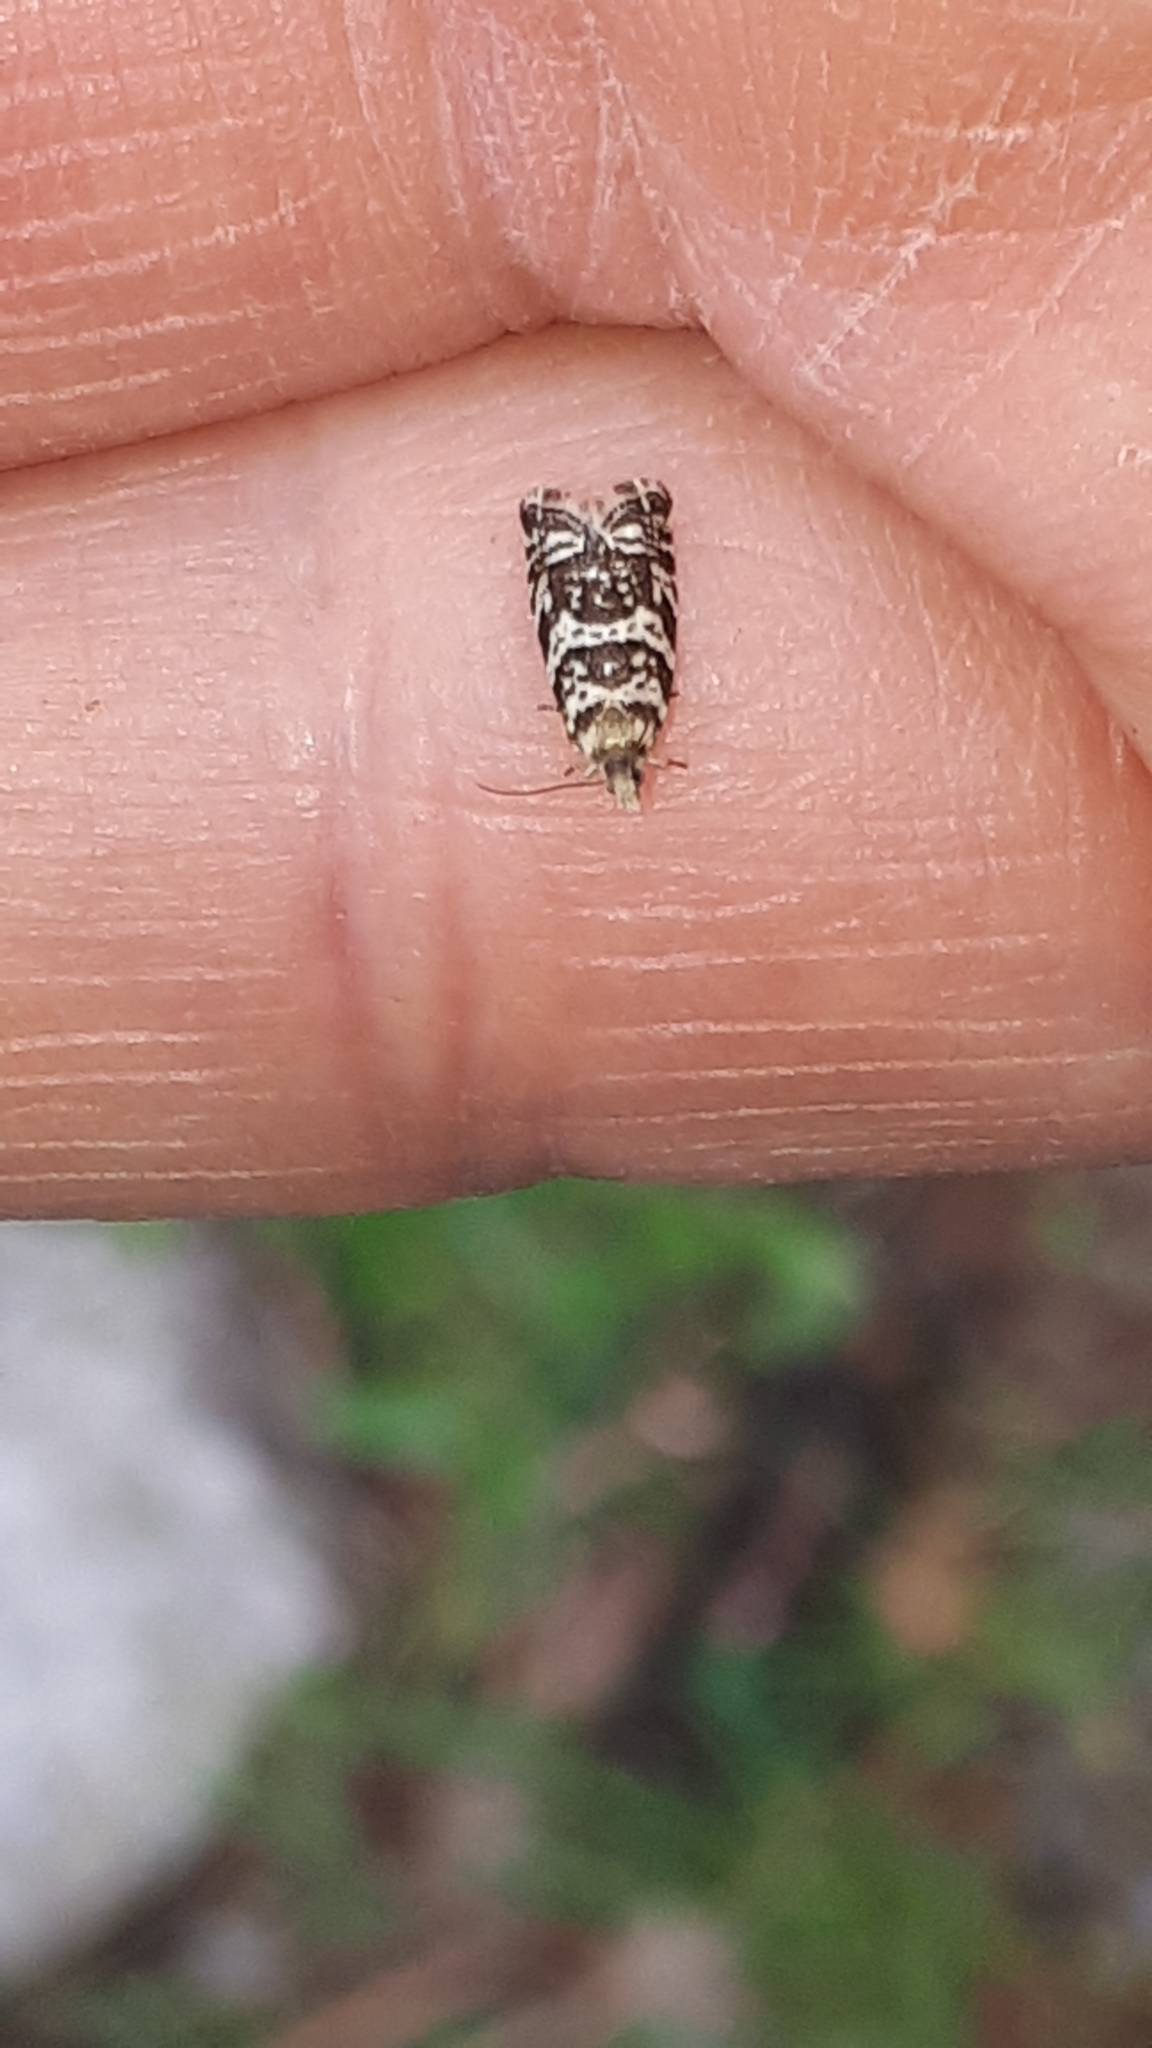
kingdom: Animalia
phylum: Arthropoda
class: Insecta
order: Lepidoptera
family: Tortricidae
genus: Epinotia
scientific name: Epinotia tedella
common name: Common spruce bell
